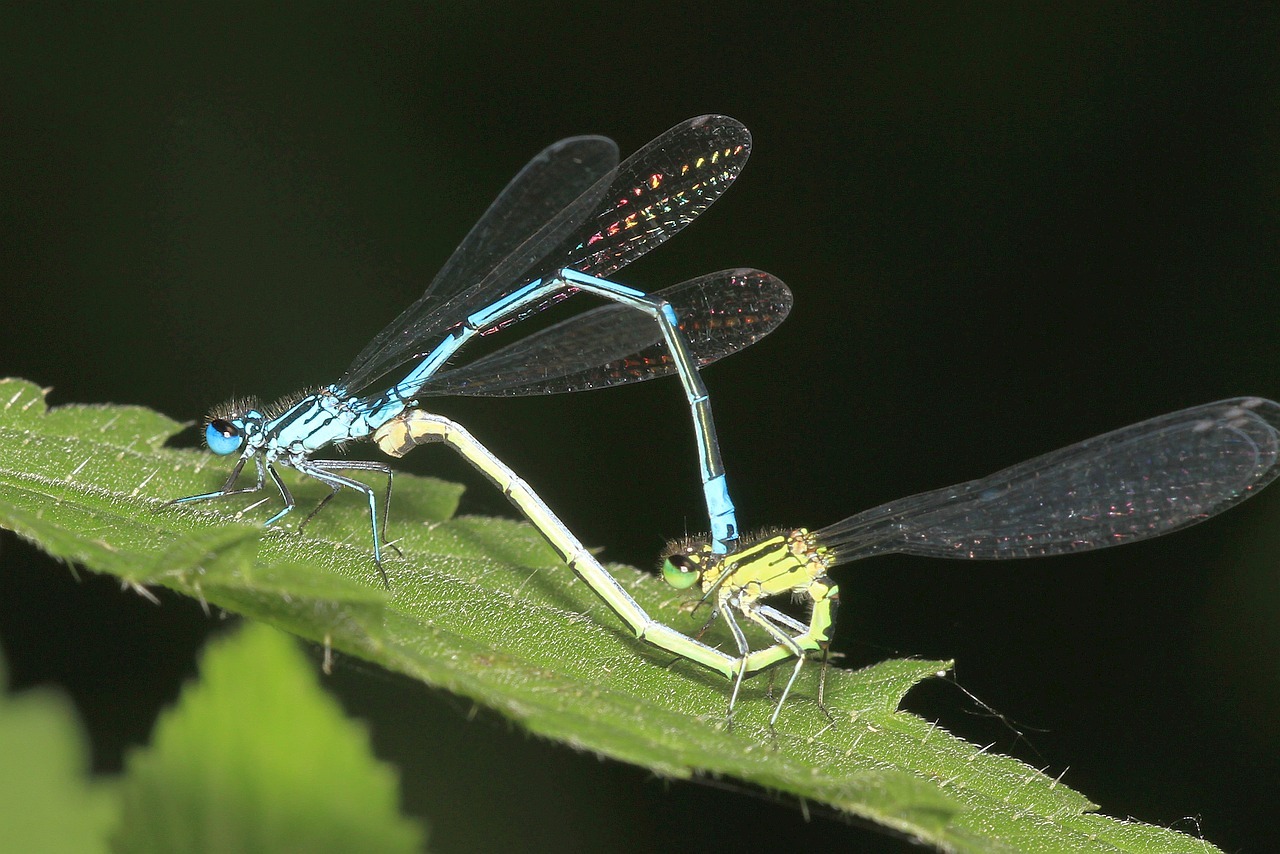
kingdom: Animalia
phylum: Arthropoda
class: Insecta
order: Odonata
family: Coenagrionidae
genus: Coenagrion
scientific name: Coenagrion puella
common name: Azure damselfly
